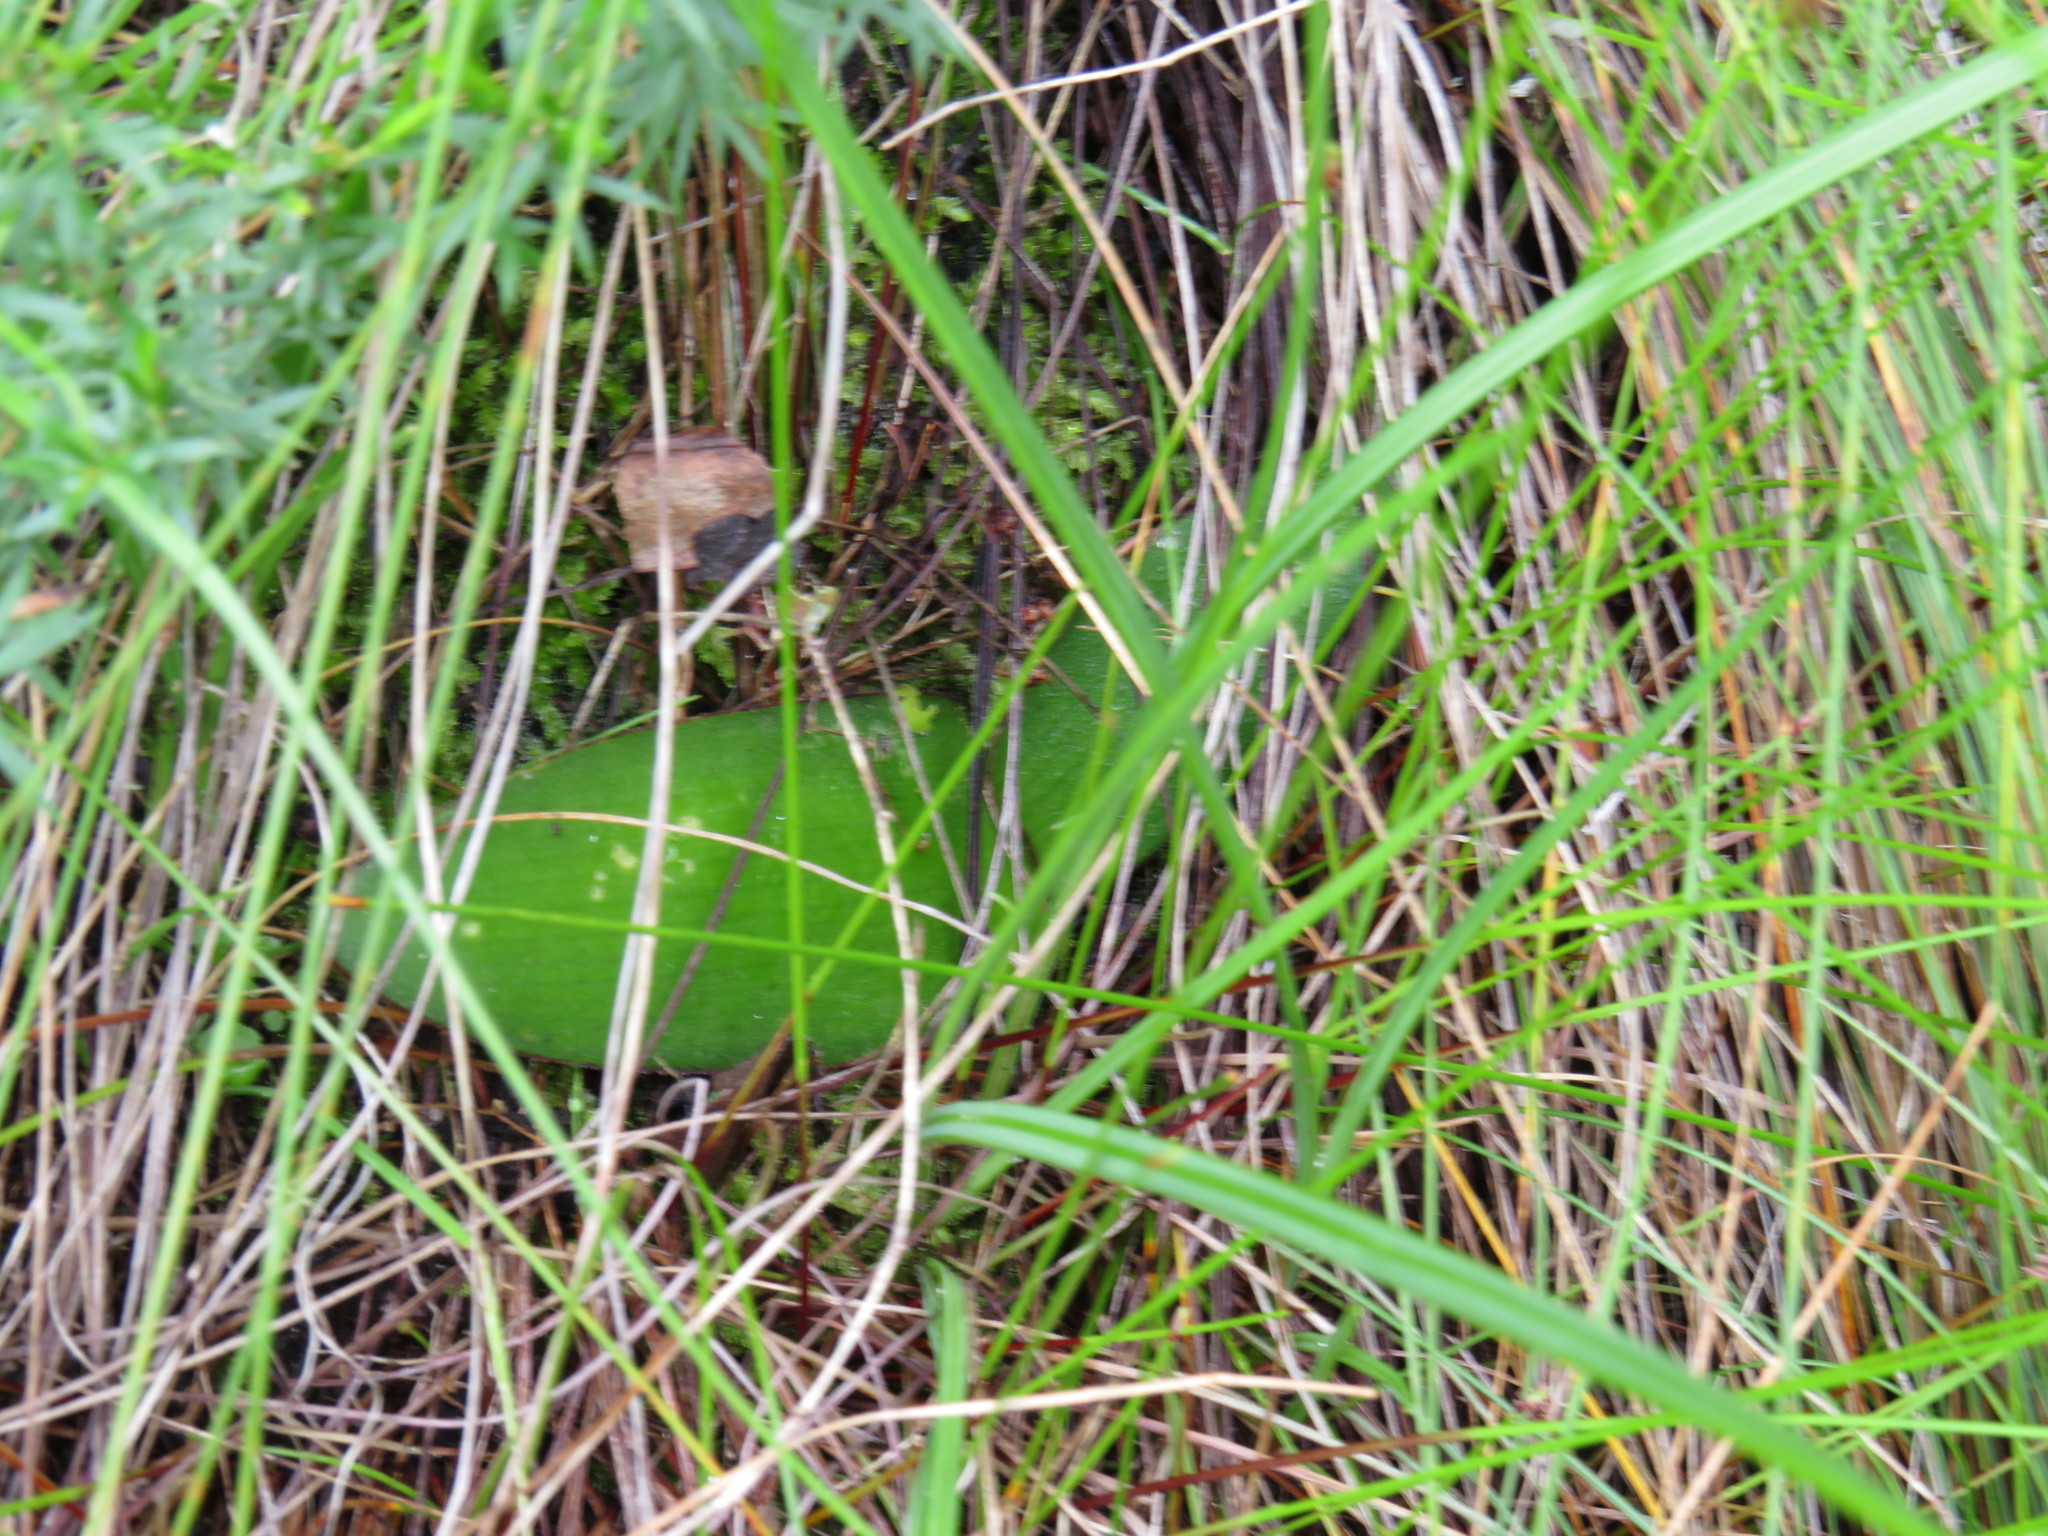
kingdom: Plantae
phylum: Tracheophyta
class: Liliopsida
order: Asparagales
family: Amaryllidaceae
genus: Haemanthus
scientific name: Haemanthus sanguineus
